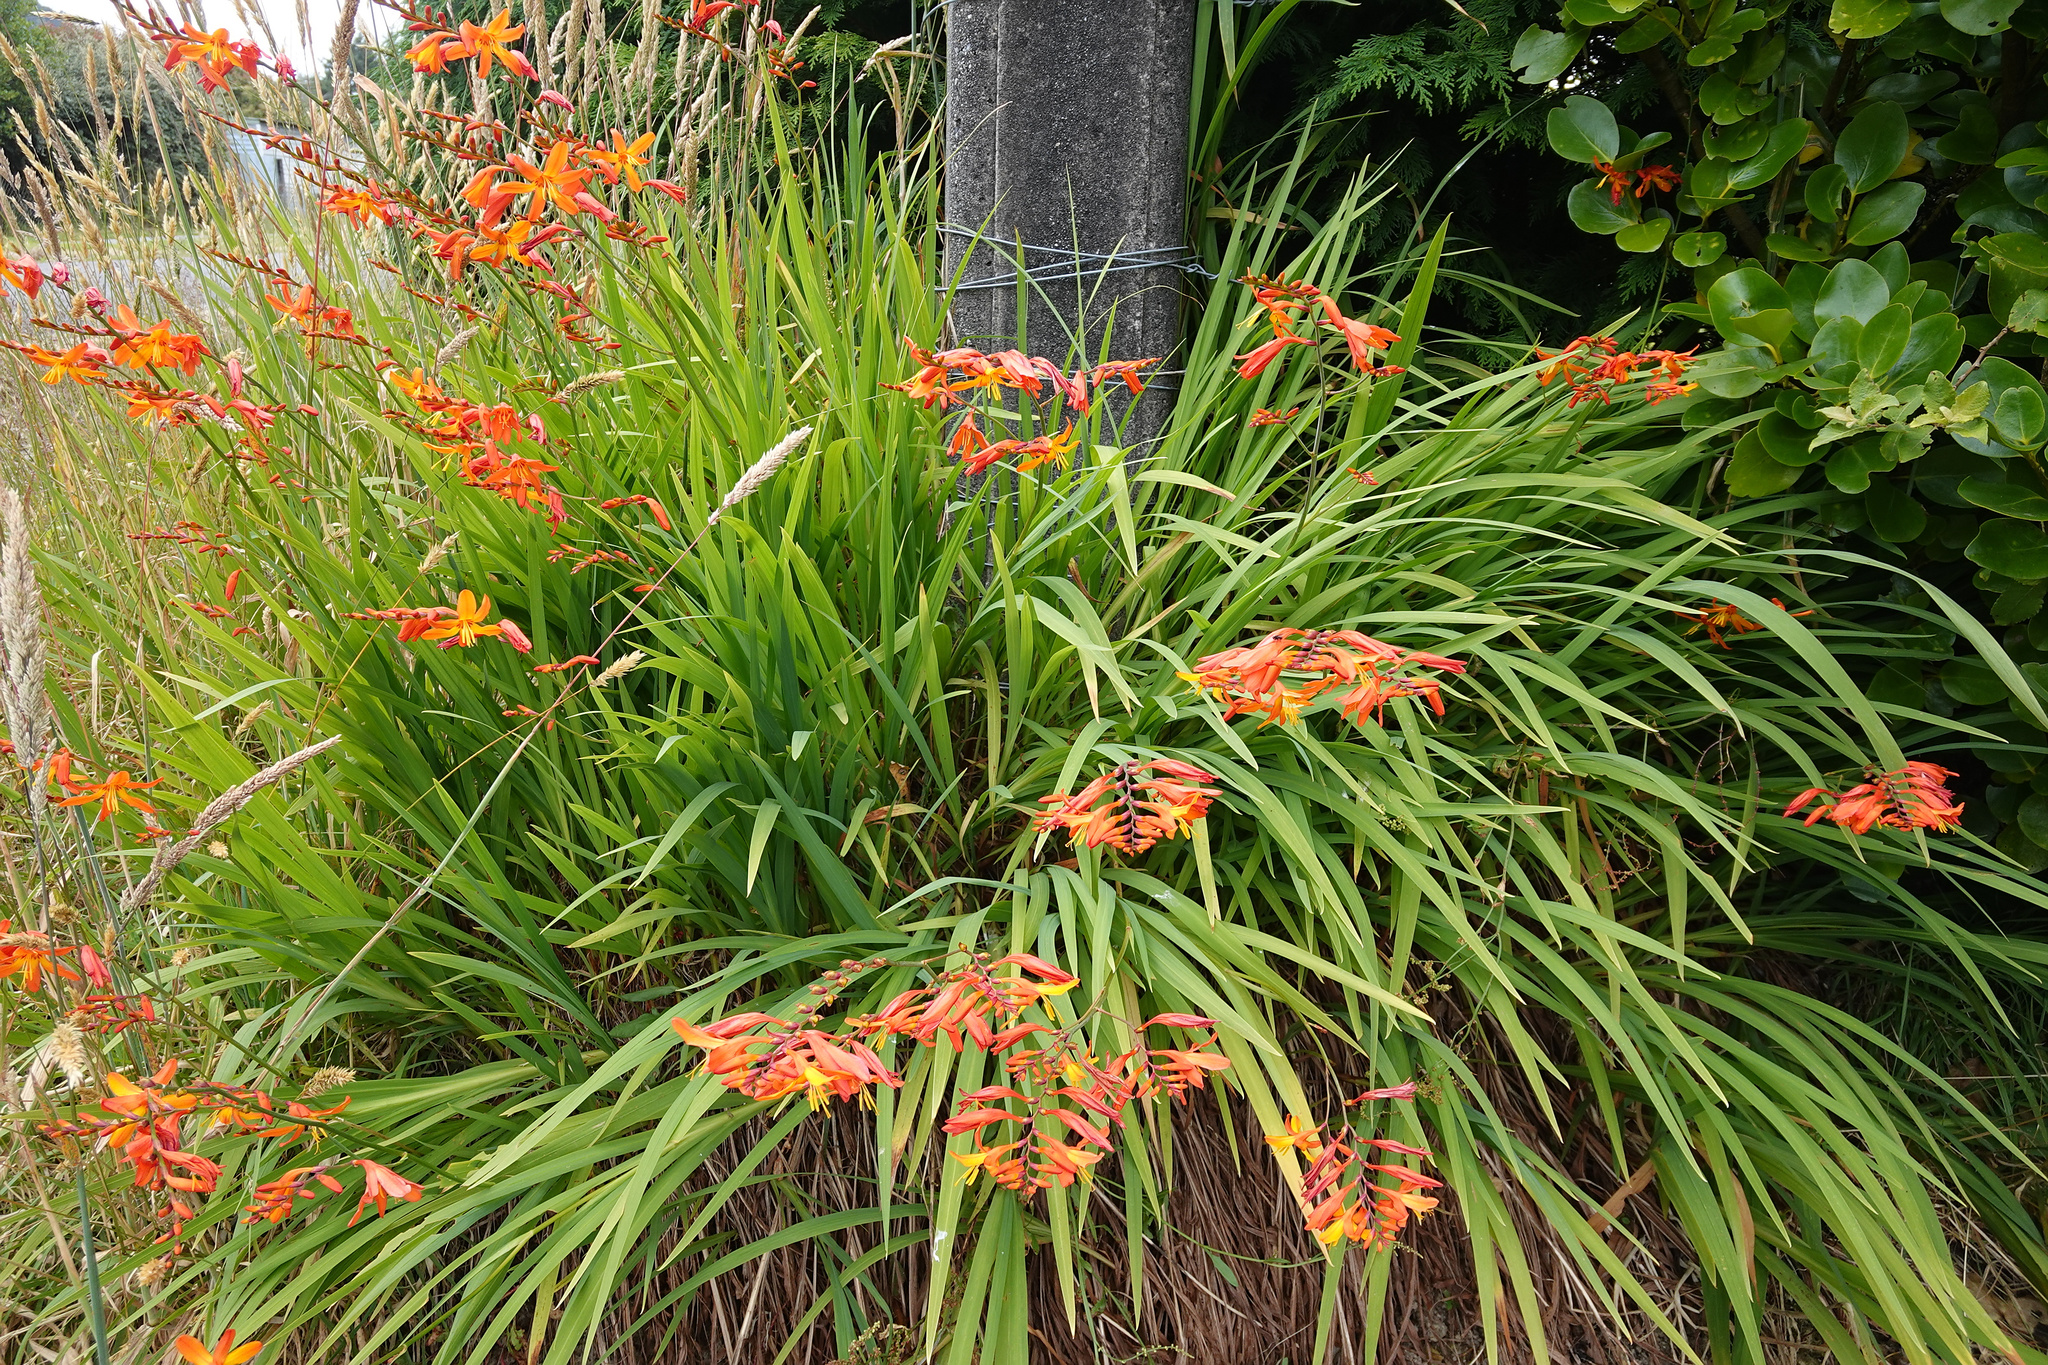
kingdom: Plantae
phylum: Tracheophyta
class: Liliopsida
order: Asparagales
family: Iridaceae
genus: Crocosmia
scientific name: Crocosmia crocosmiiflora
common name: Montbretia
